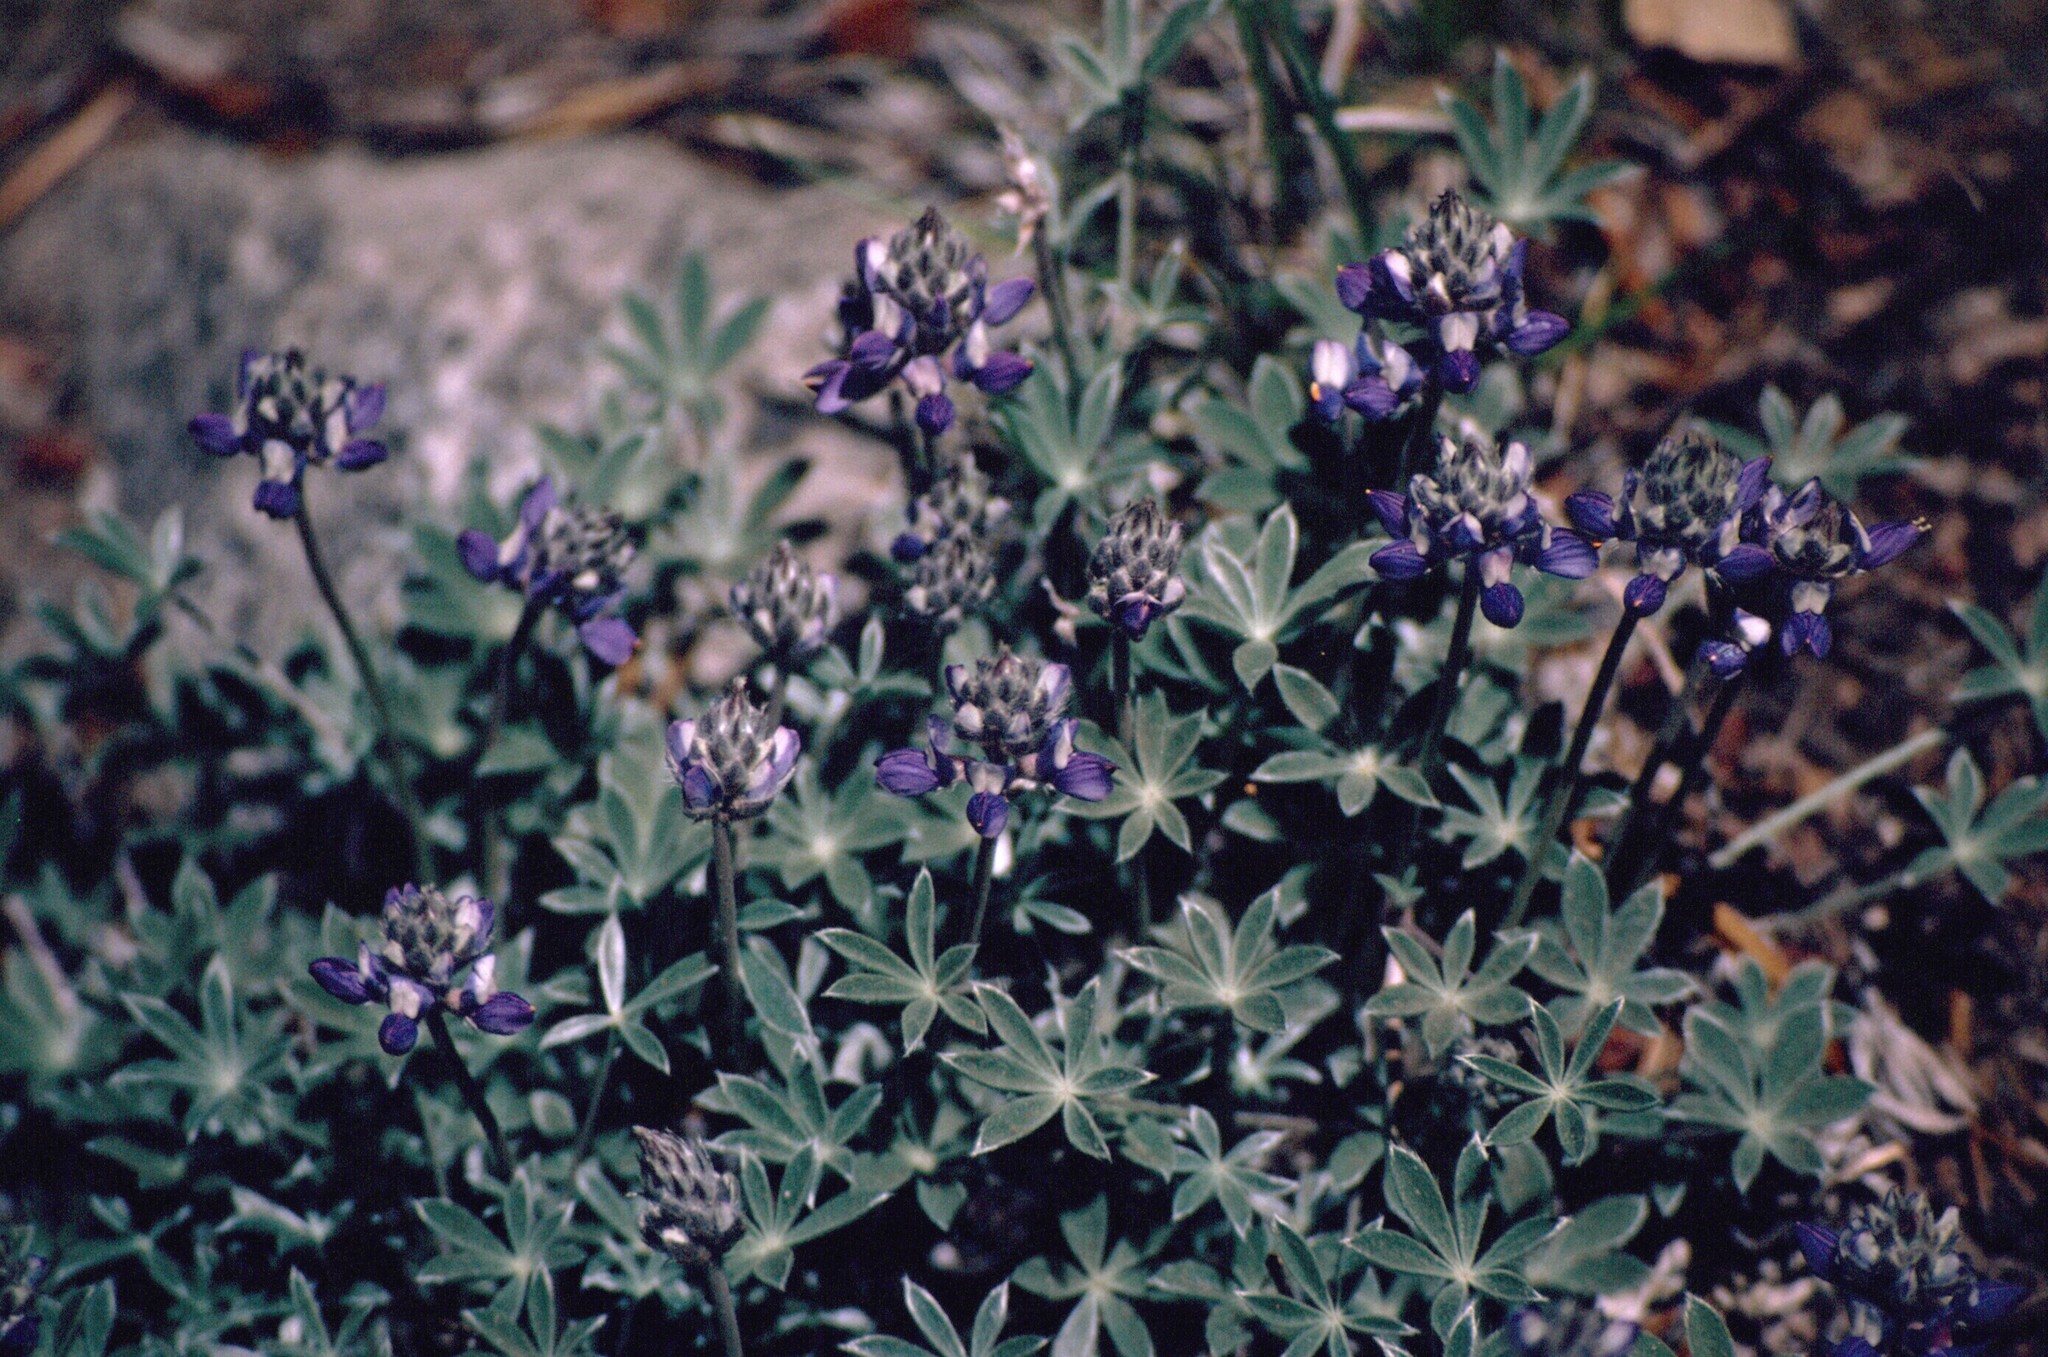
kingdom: Plantae
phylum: Tracheophyta
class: Magnoliopsida
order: Fabales
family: Fabaceae
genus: Lupinus
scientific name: Lupinus breweri
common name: Brewer's lupine
